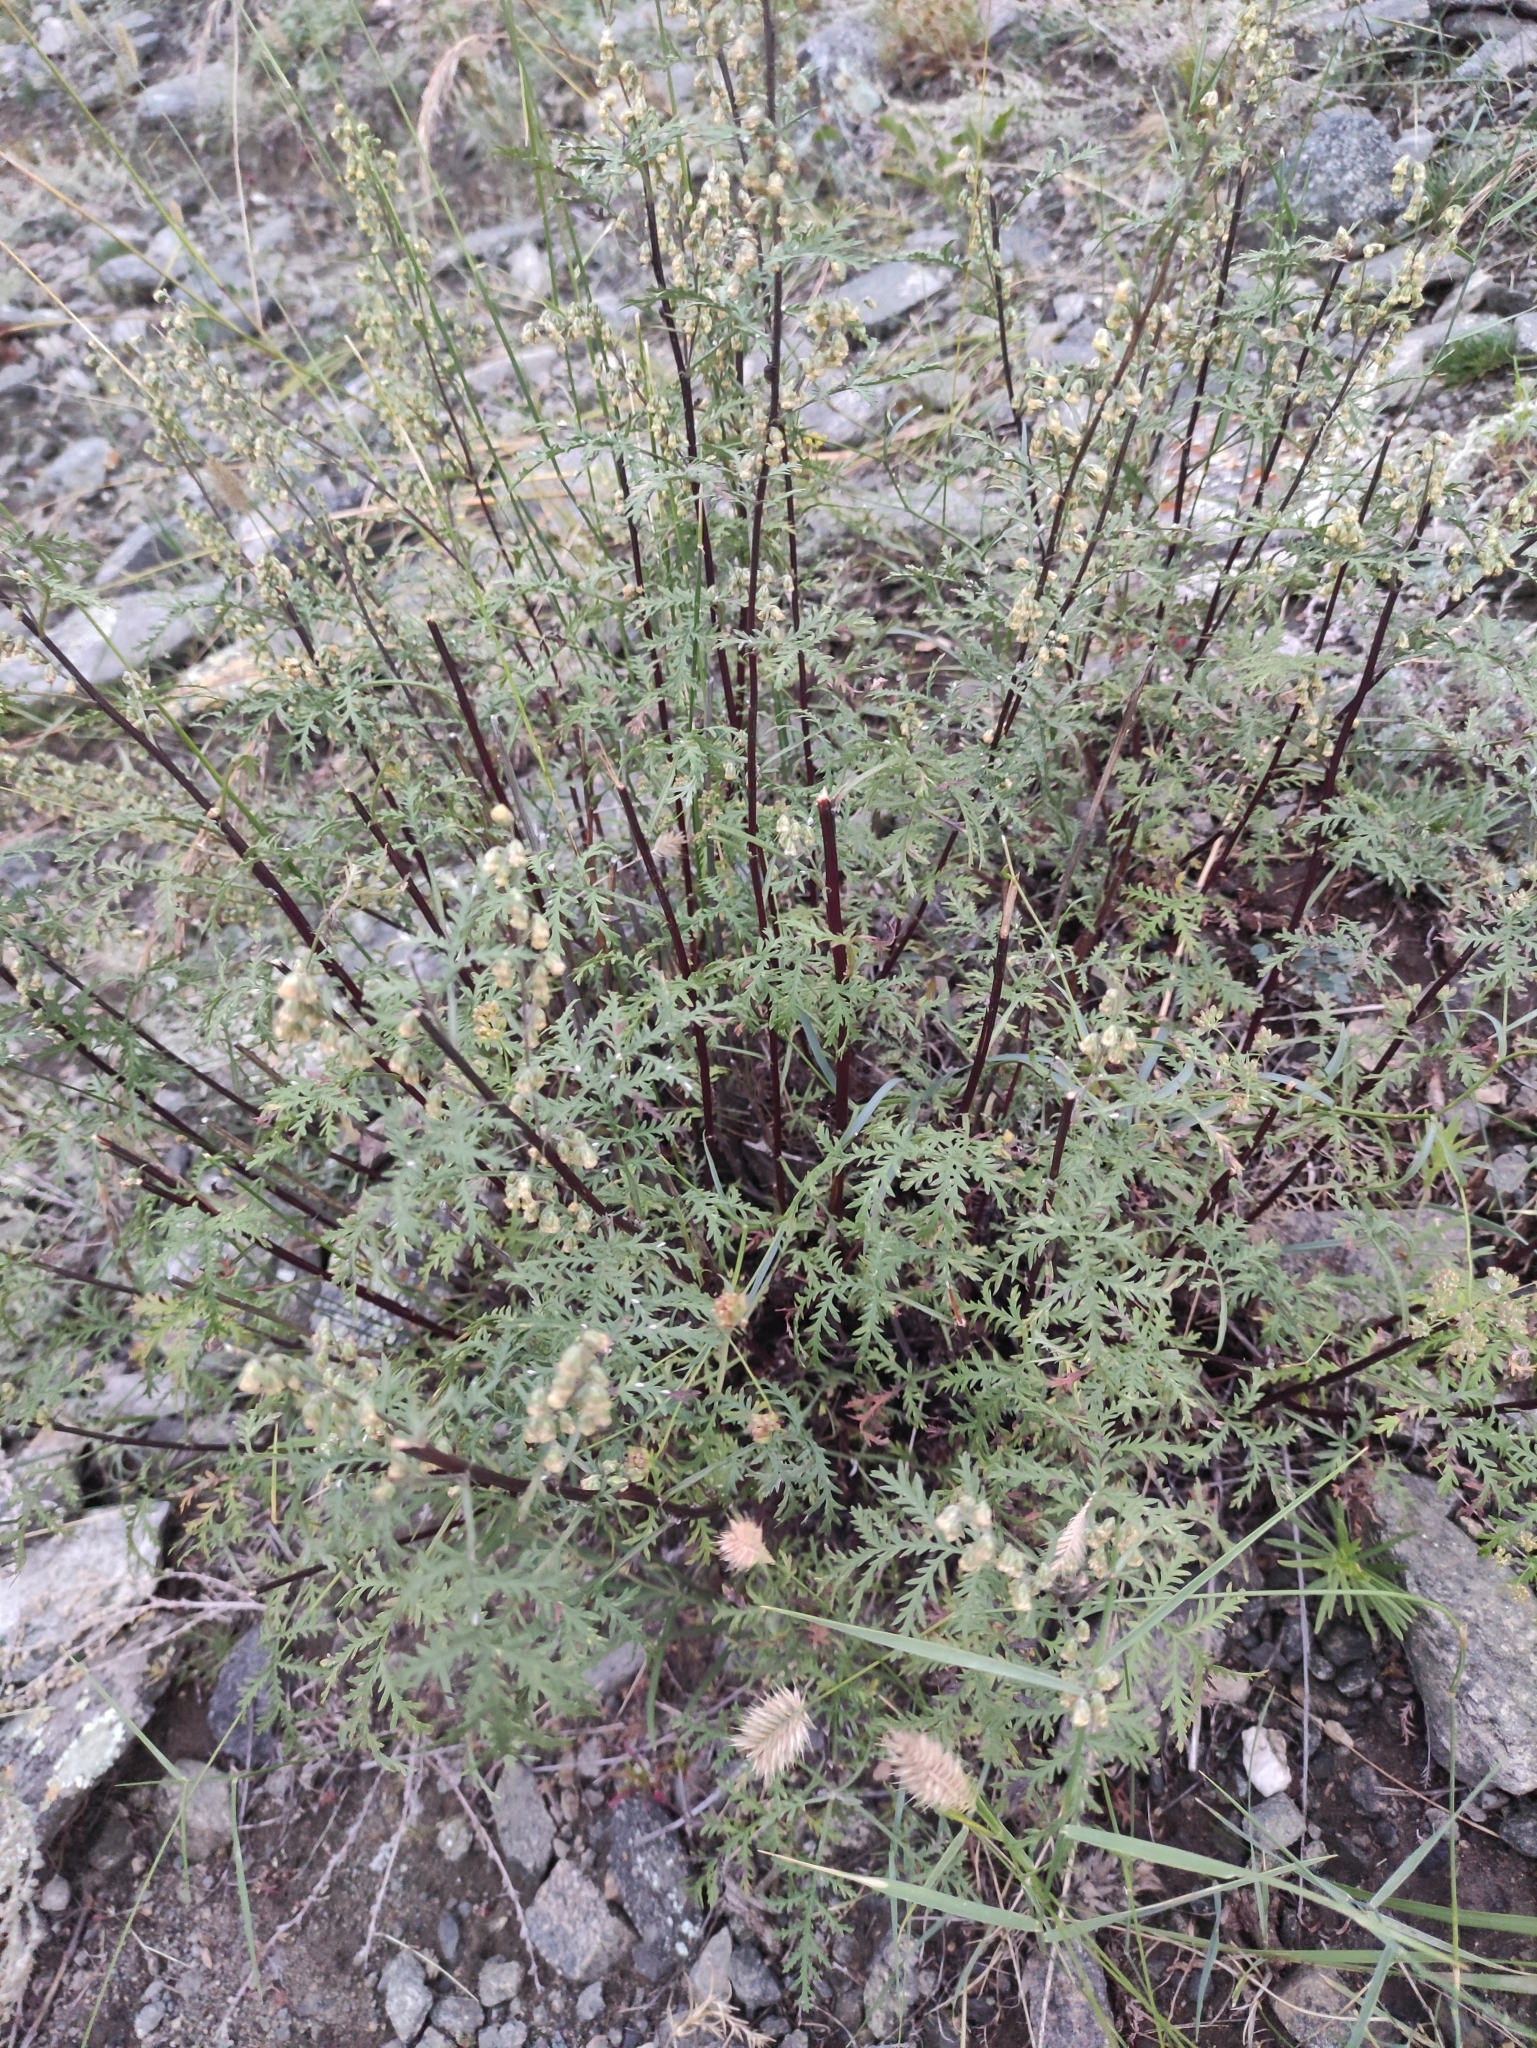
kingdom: Plantae
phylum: Tracheophyta
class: Magnoliopsida
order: Asterales
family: Asteraceae
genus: Artemisia
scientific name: Artemisia gmelinii
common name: Gmelin's wormwood
